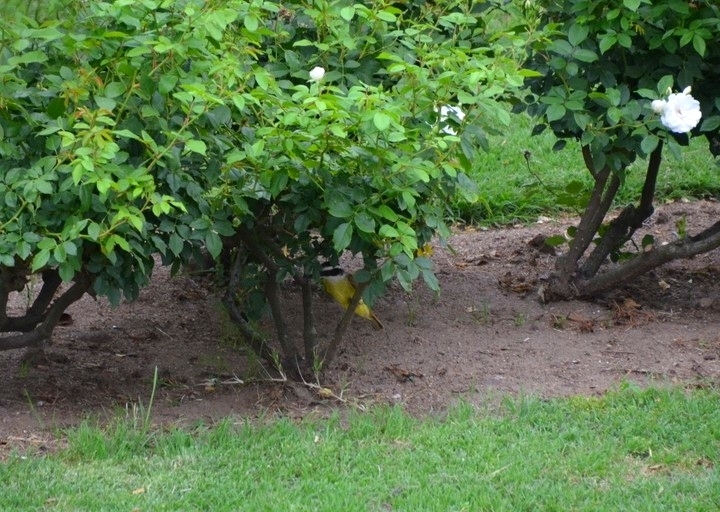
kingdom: Animalia
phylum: Chordata
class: Aves
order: Passeriformes
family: Tyrannidae
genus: Pitangus
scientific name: Pitangus sulphuratus
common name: Great kiskadee
